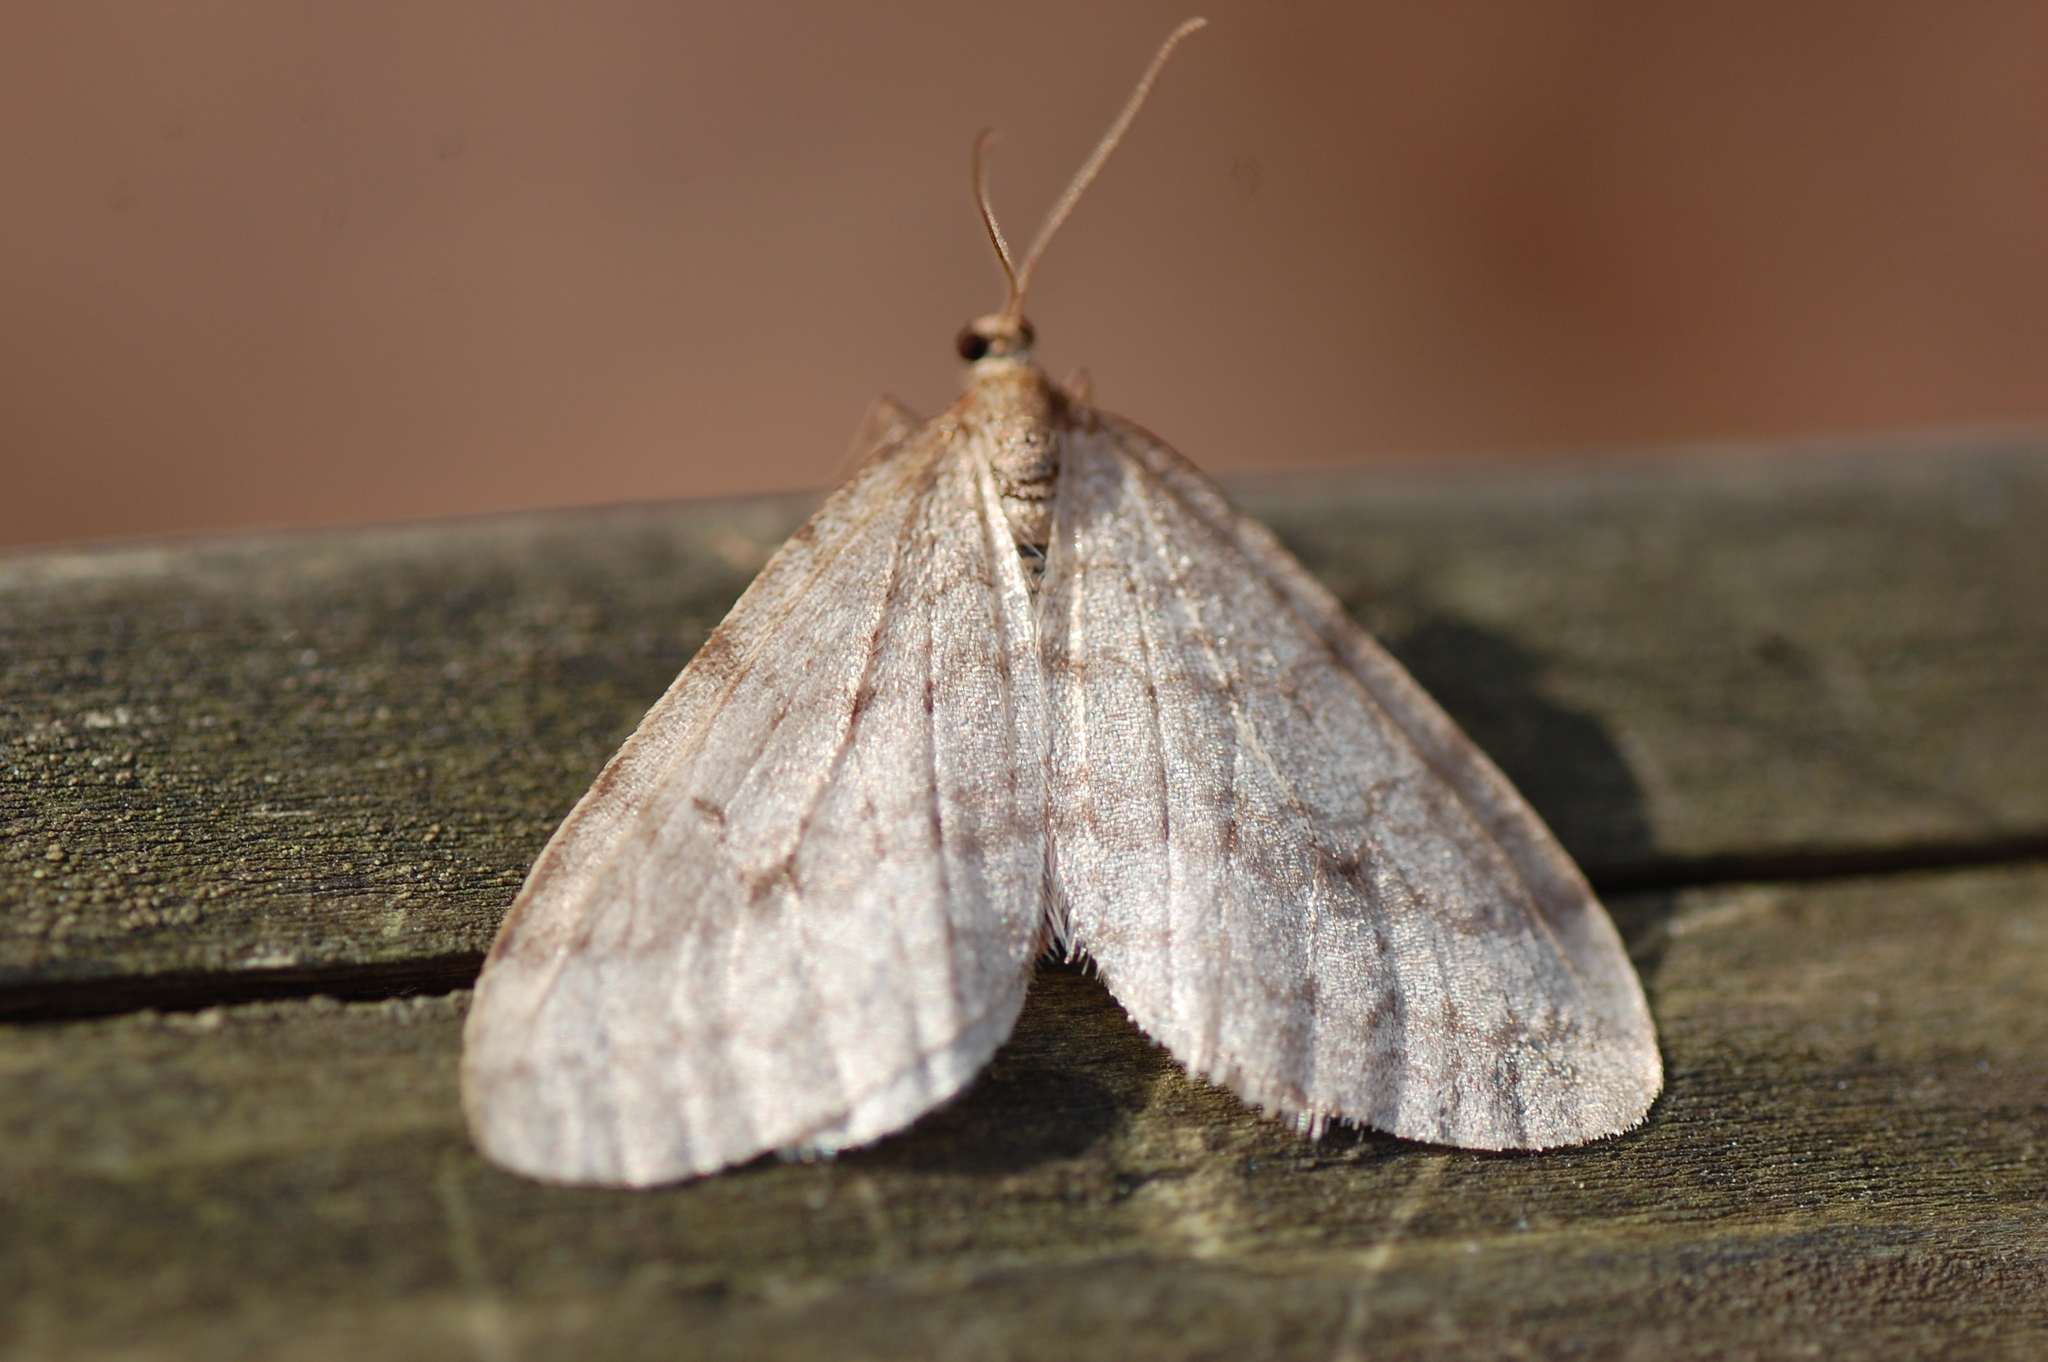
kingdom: Animalia
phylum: Arthropoda
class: Insecta
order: Lepidoptera
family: Geometridae
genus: Operophtera
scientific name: Operophtera bruceata
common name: Bruce spanworm
